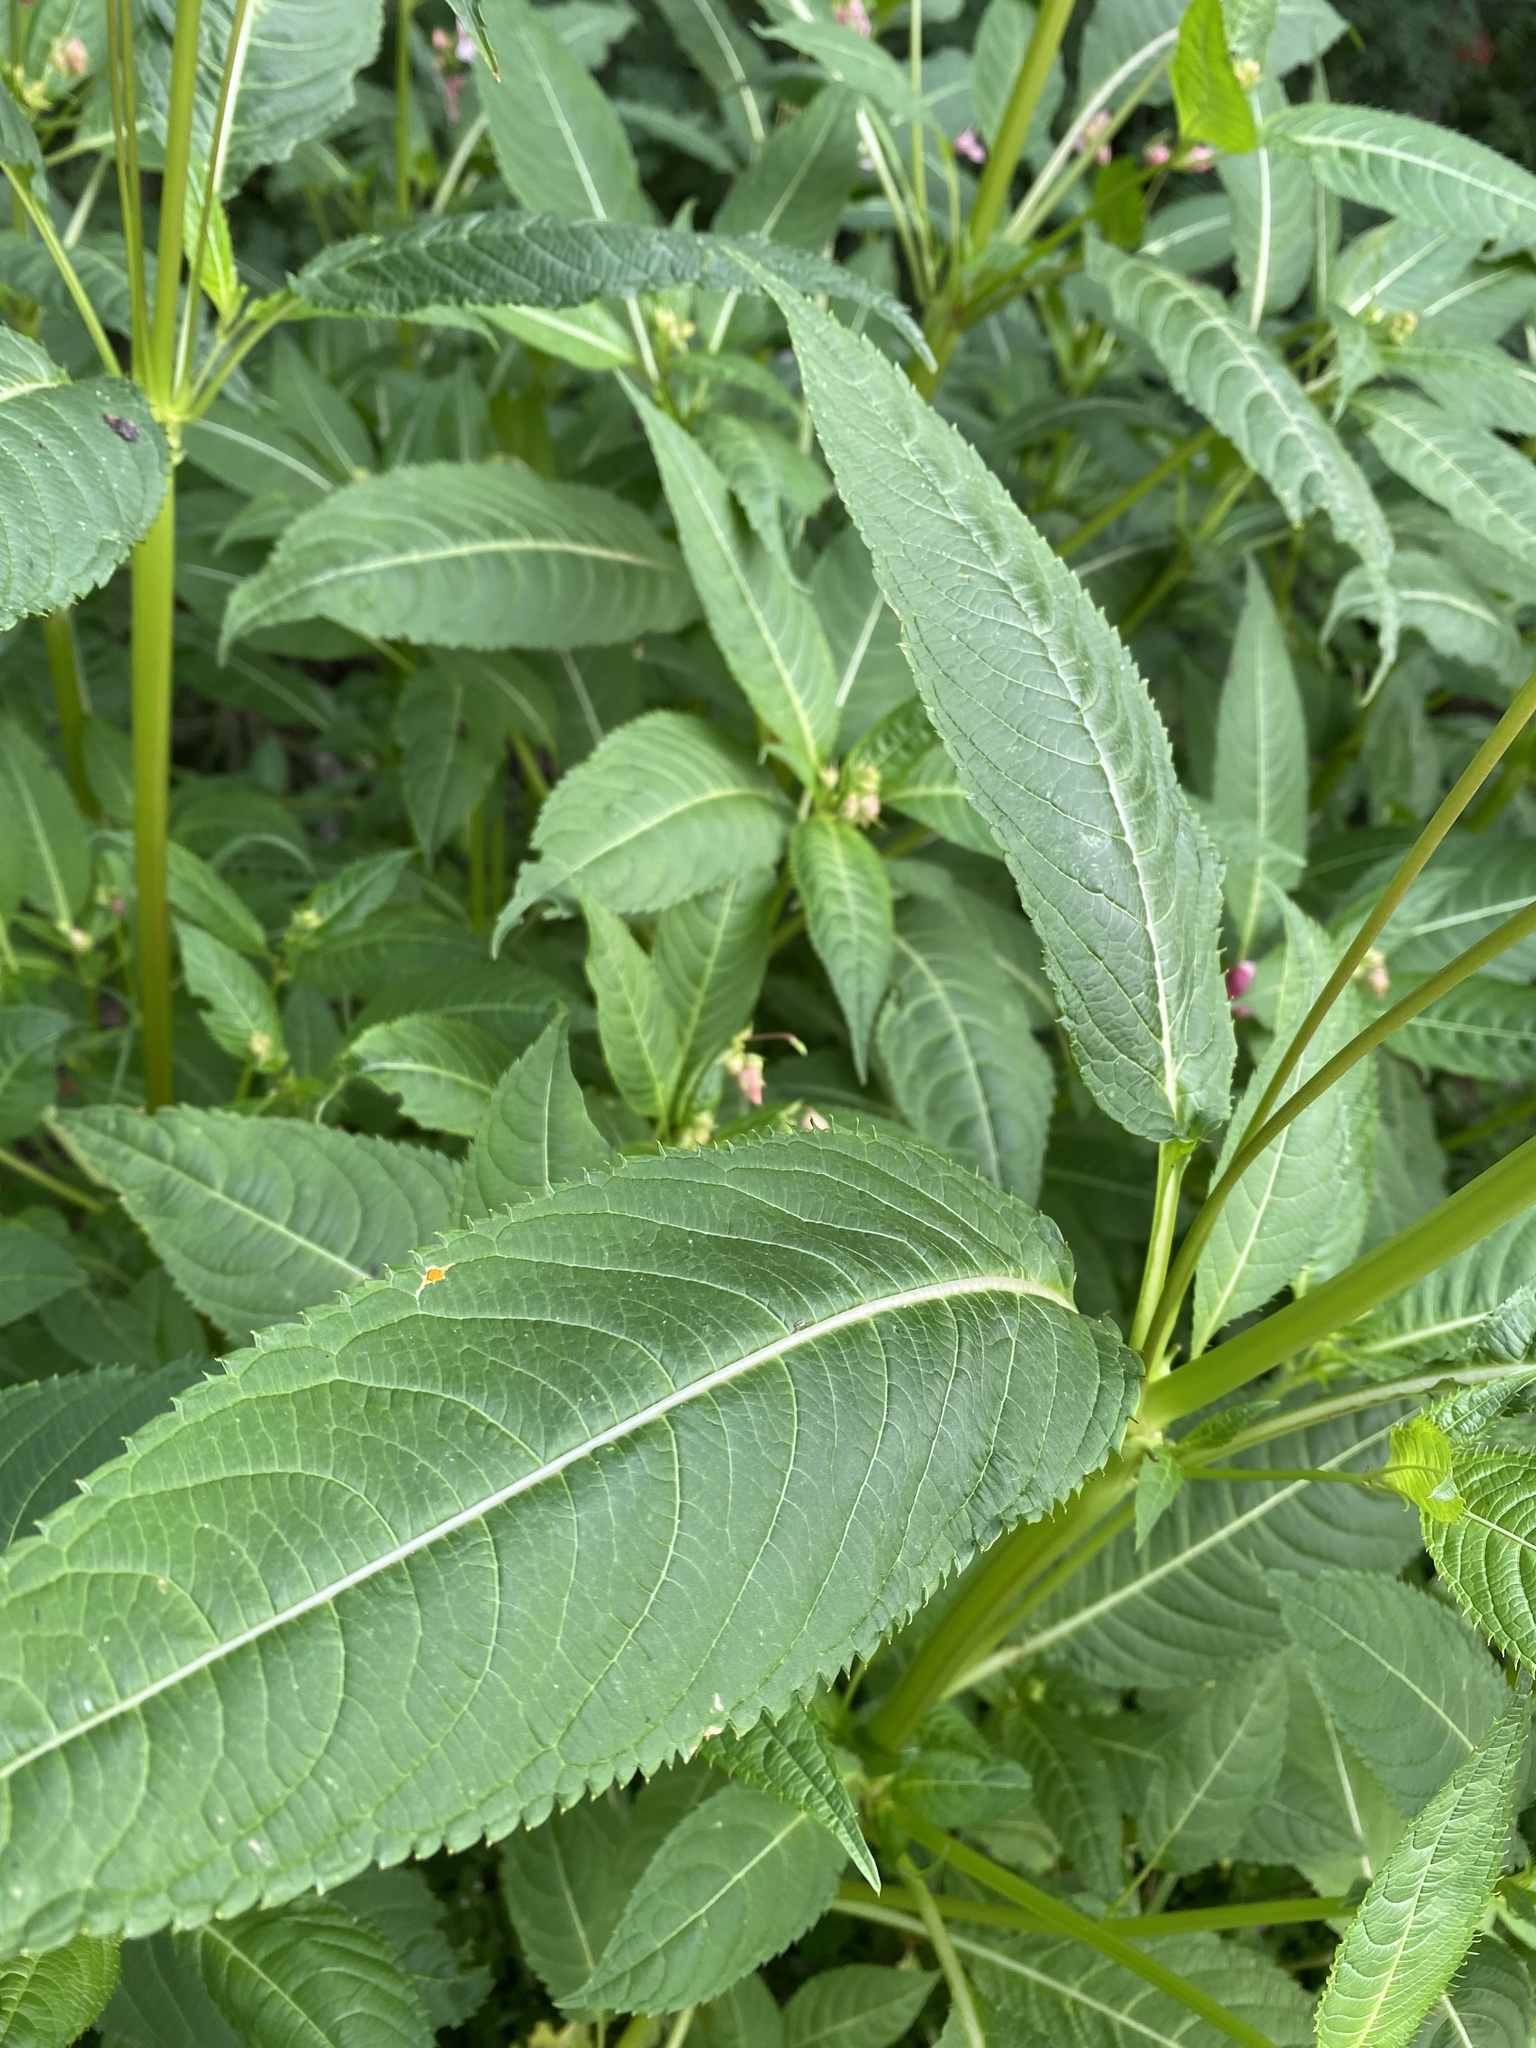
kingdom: Plantae
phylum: Tracheophyta
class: Magnoliopsida
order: Ericales
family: Balsaminaceae
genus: Impatiens
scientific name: Impatiens glandulifera
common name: Himalayan balsam
